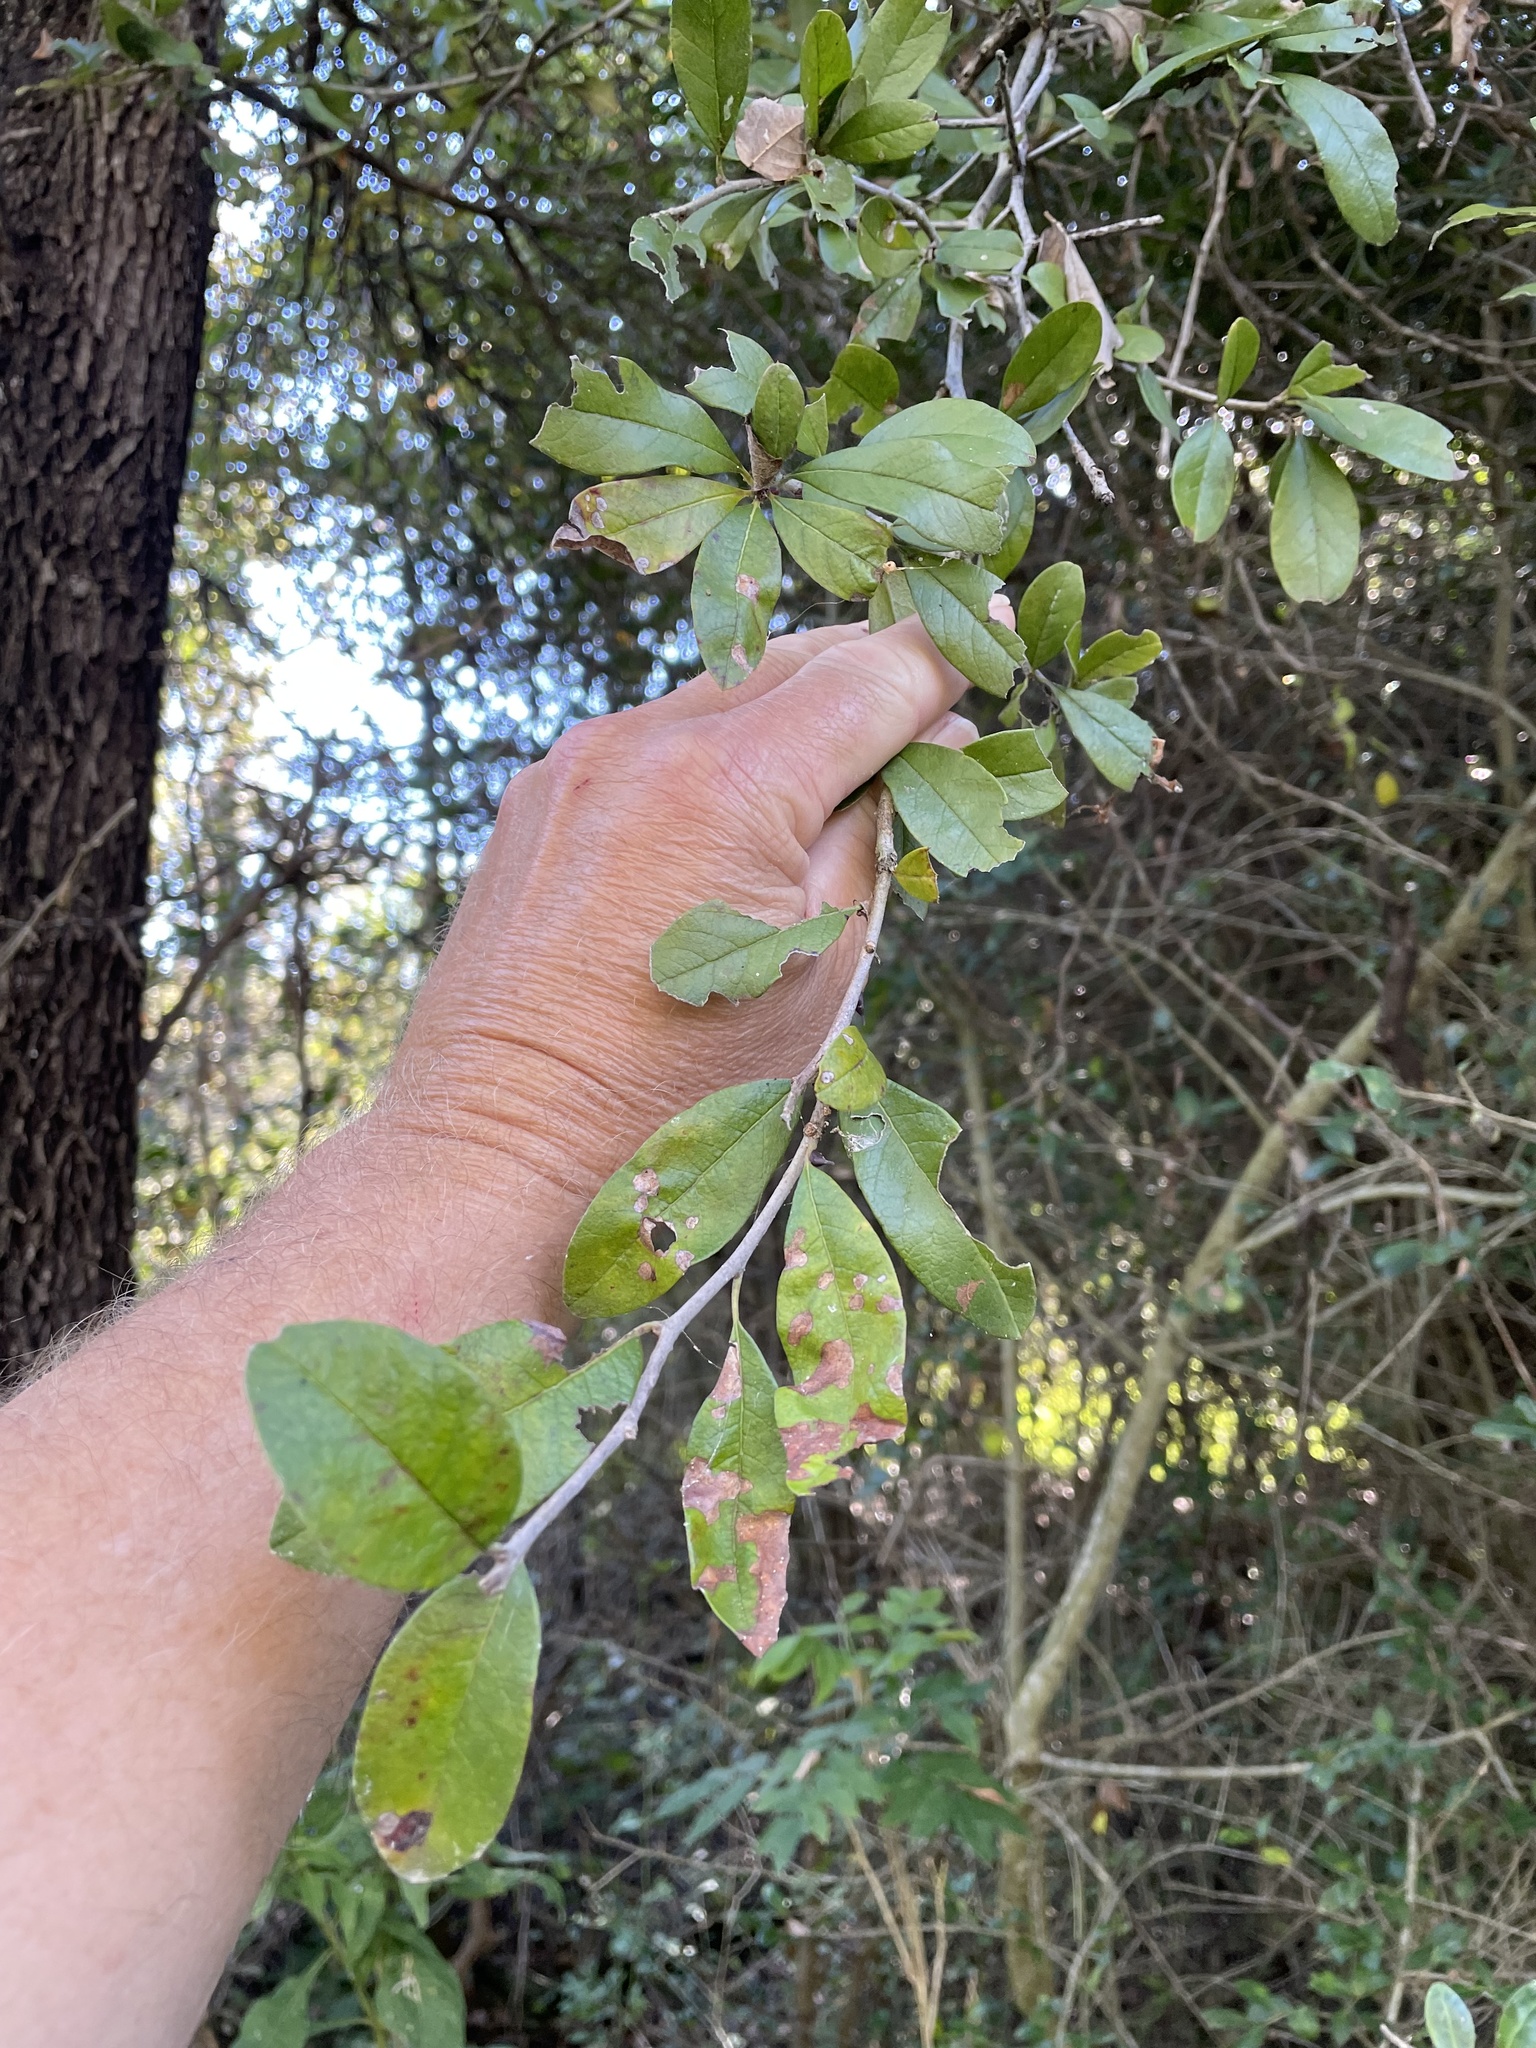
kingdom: Plantae
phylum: Tracheophyta
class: Magnoliopsida
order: Ericales
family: Sapotaceae
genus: Sideroxylon
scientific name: Sideroxylon lanuginosum
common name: Chittamwood
